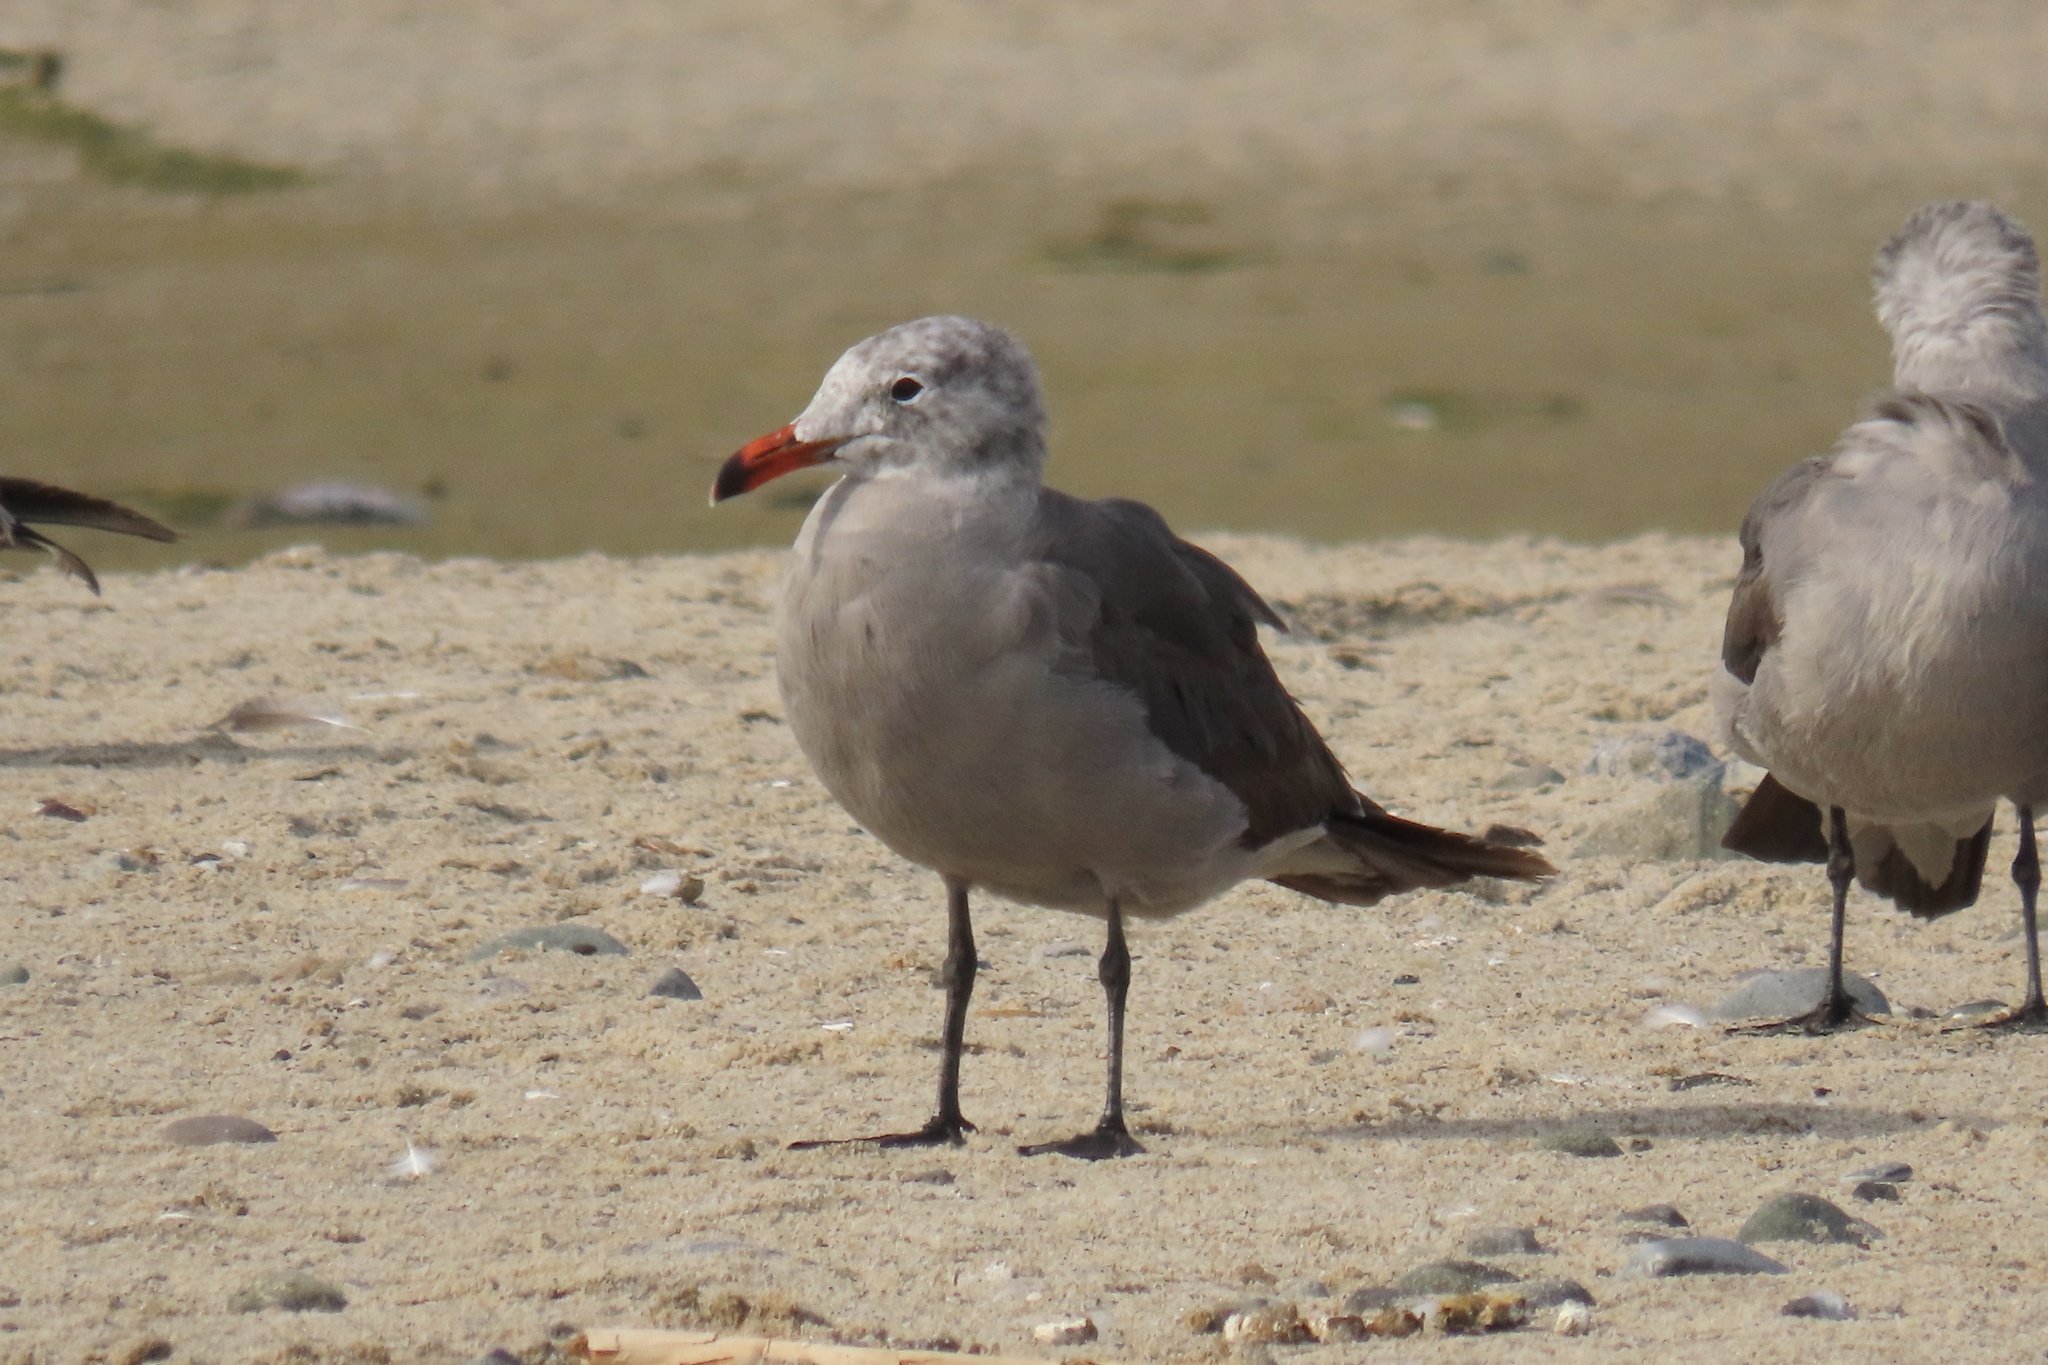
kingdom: Animalia
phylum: Chordata
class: Aves
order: Charadriiformes
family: Laridae
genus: Larus
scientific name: Larus heermanni
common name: Heermann's gull
